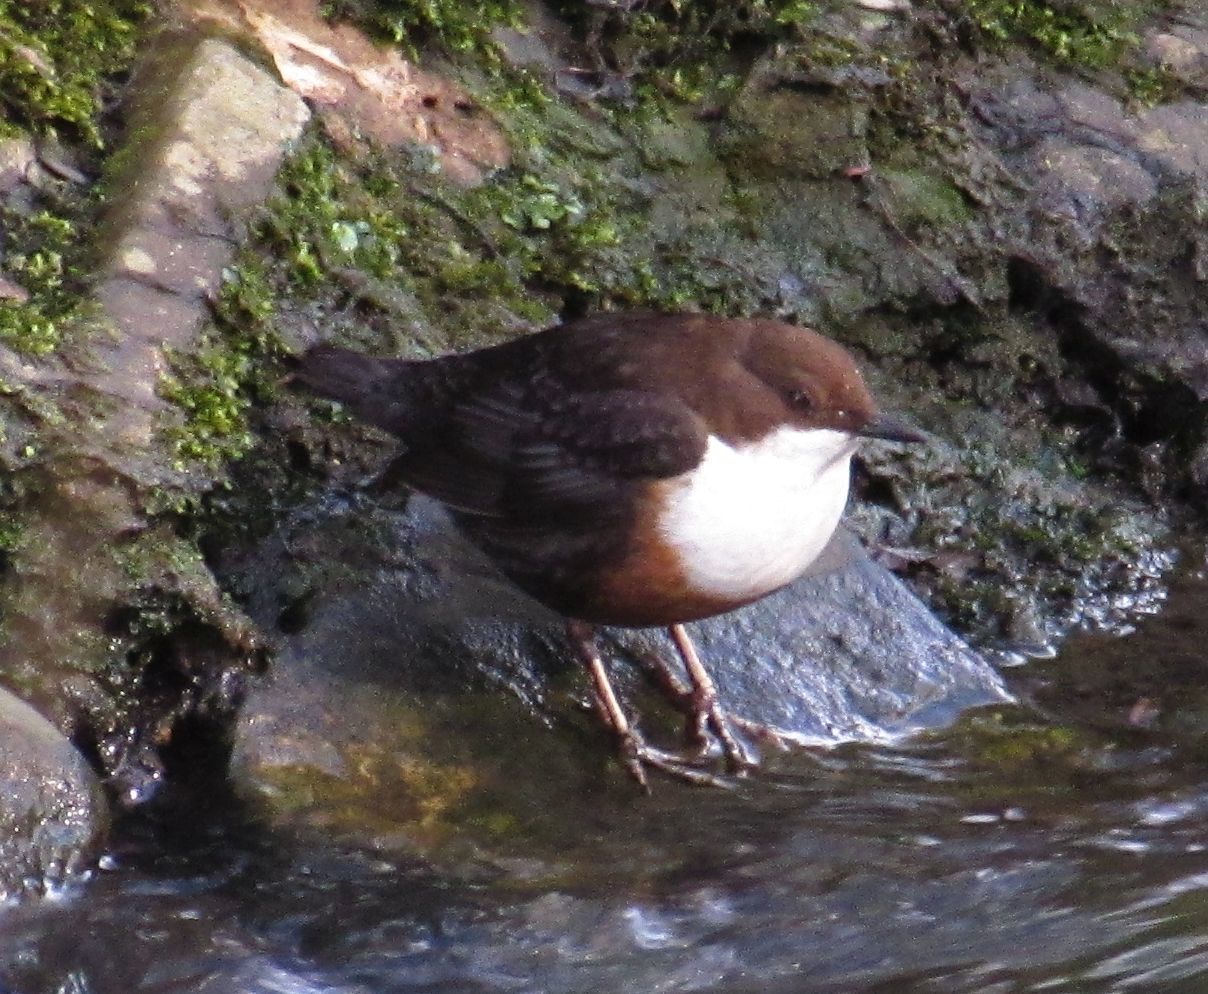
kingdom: Animalia
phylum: Chordata
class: Aves
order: Passeriformes
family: Cinclidae
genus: Cinclus
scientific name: Cinclus cinclus
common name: White-throated dipper
